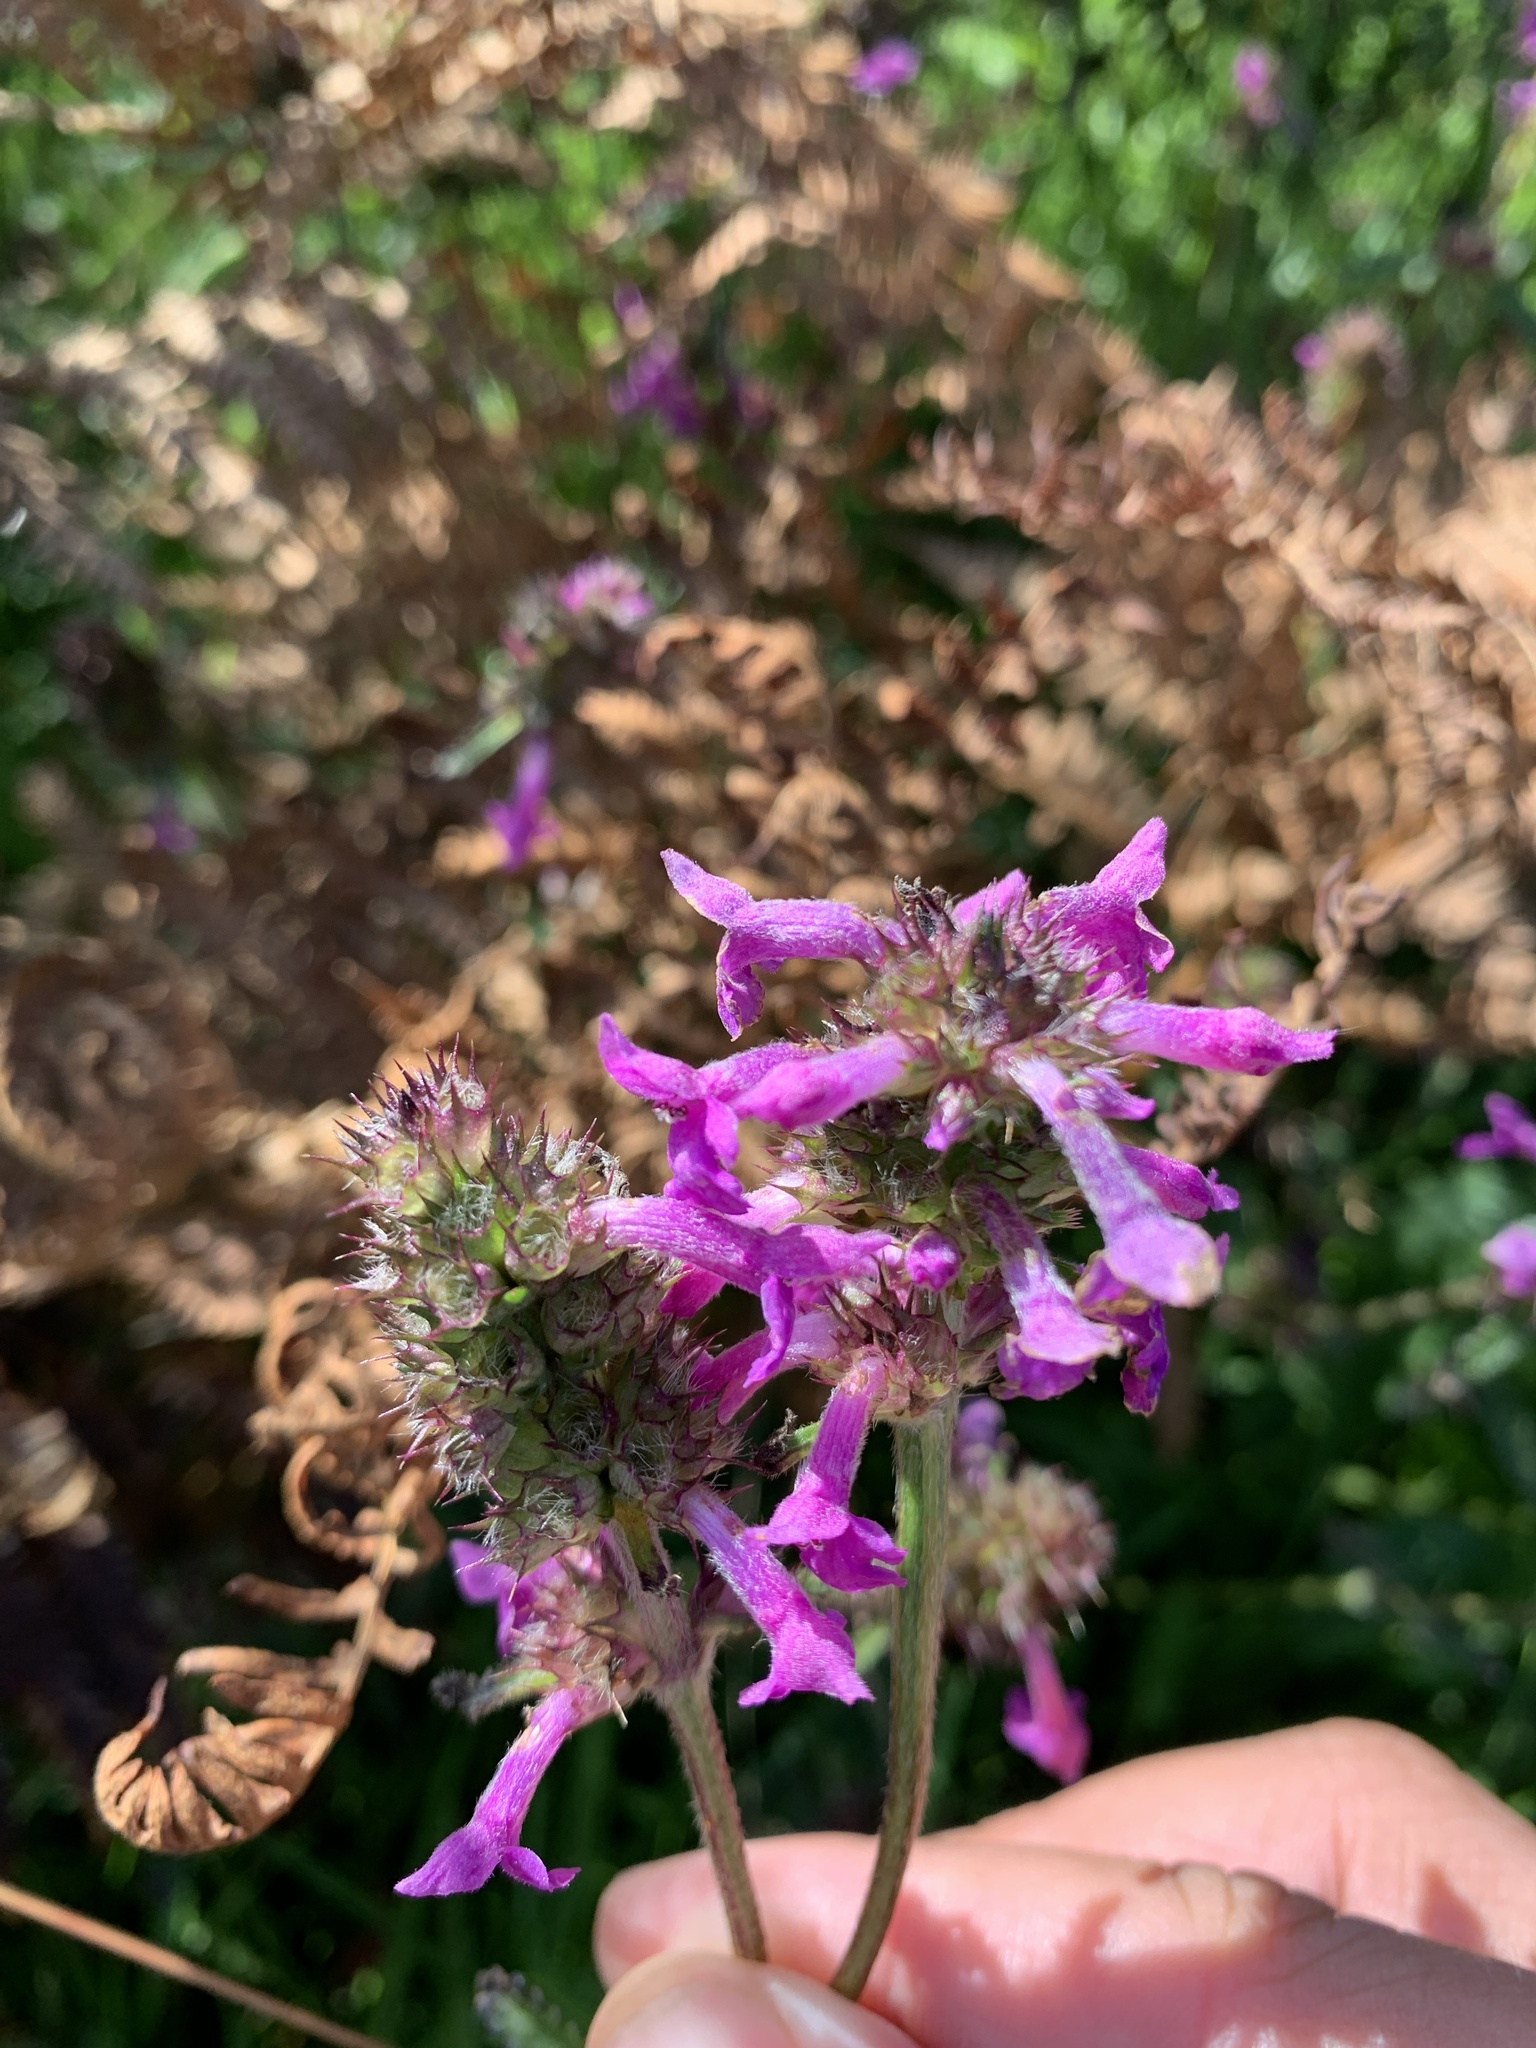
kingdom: Plantae
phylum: Tracheophyta
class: Magnoliopsida
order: Lamiales
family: Lamiaceae
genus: Betonica
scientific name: Betonica officinalis
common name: Bishop's-wort
